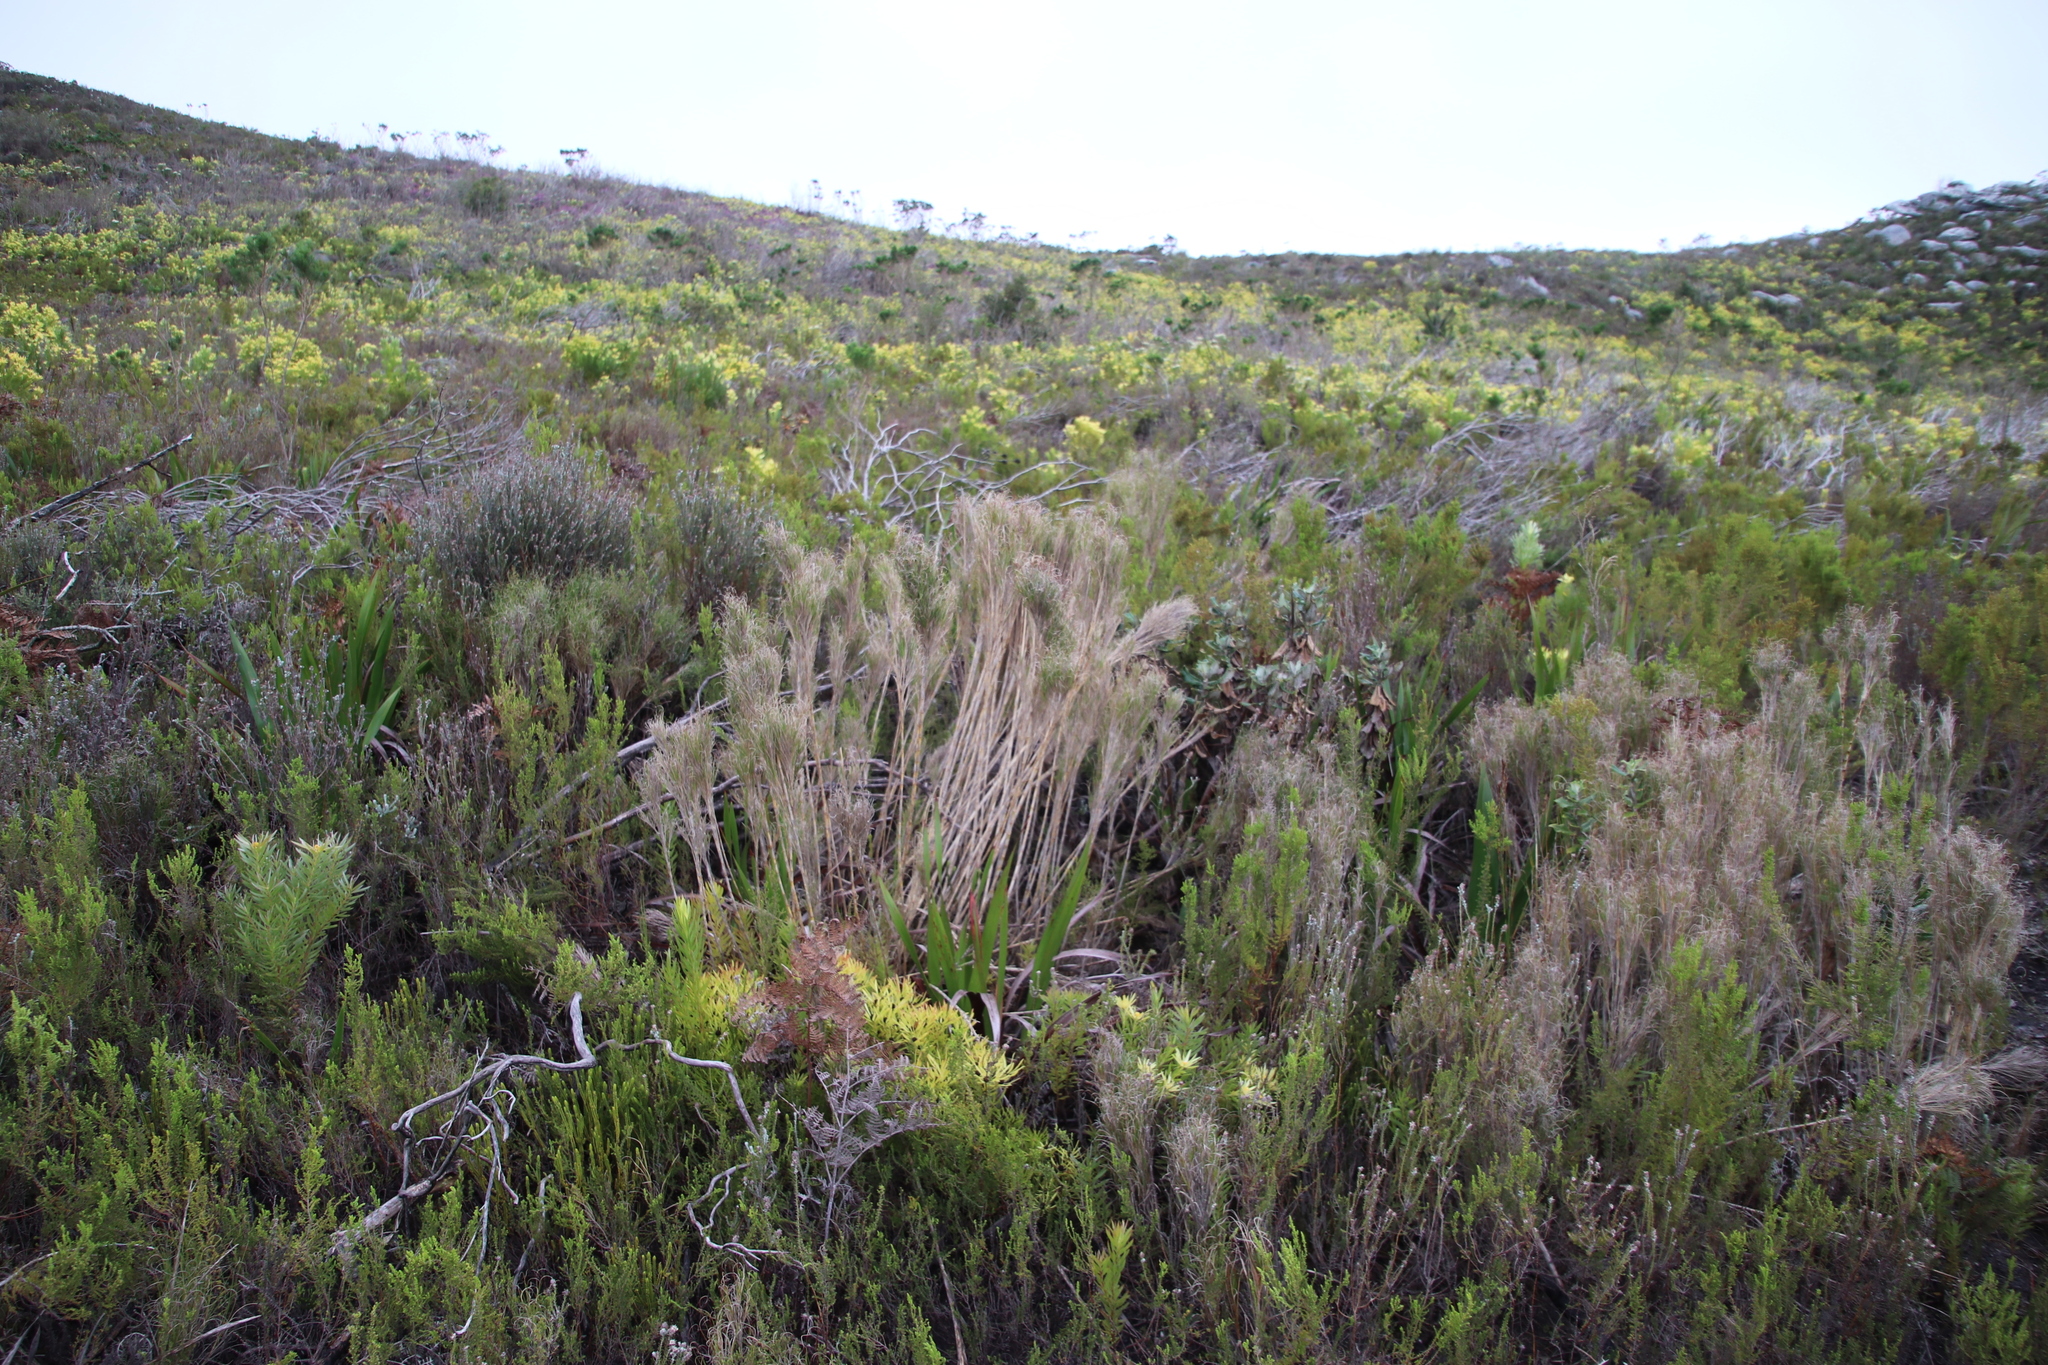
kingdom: Plantae
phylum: Tracheophyta
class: Liliopsida
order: Poales
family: Poaceae
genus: Pseudopentameris
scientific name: Pseudopentameris macrantha
